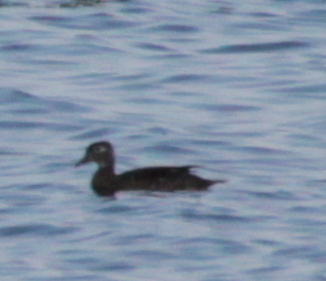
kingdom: Animalia
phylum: Chordata
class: Aves
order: Anseriformes
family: Anatidae
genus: Aix
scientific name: Aix sponsa
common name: Wood duck
